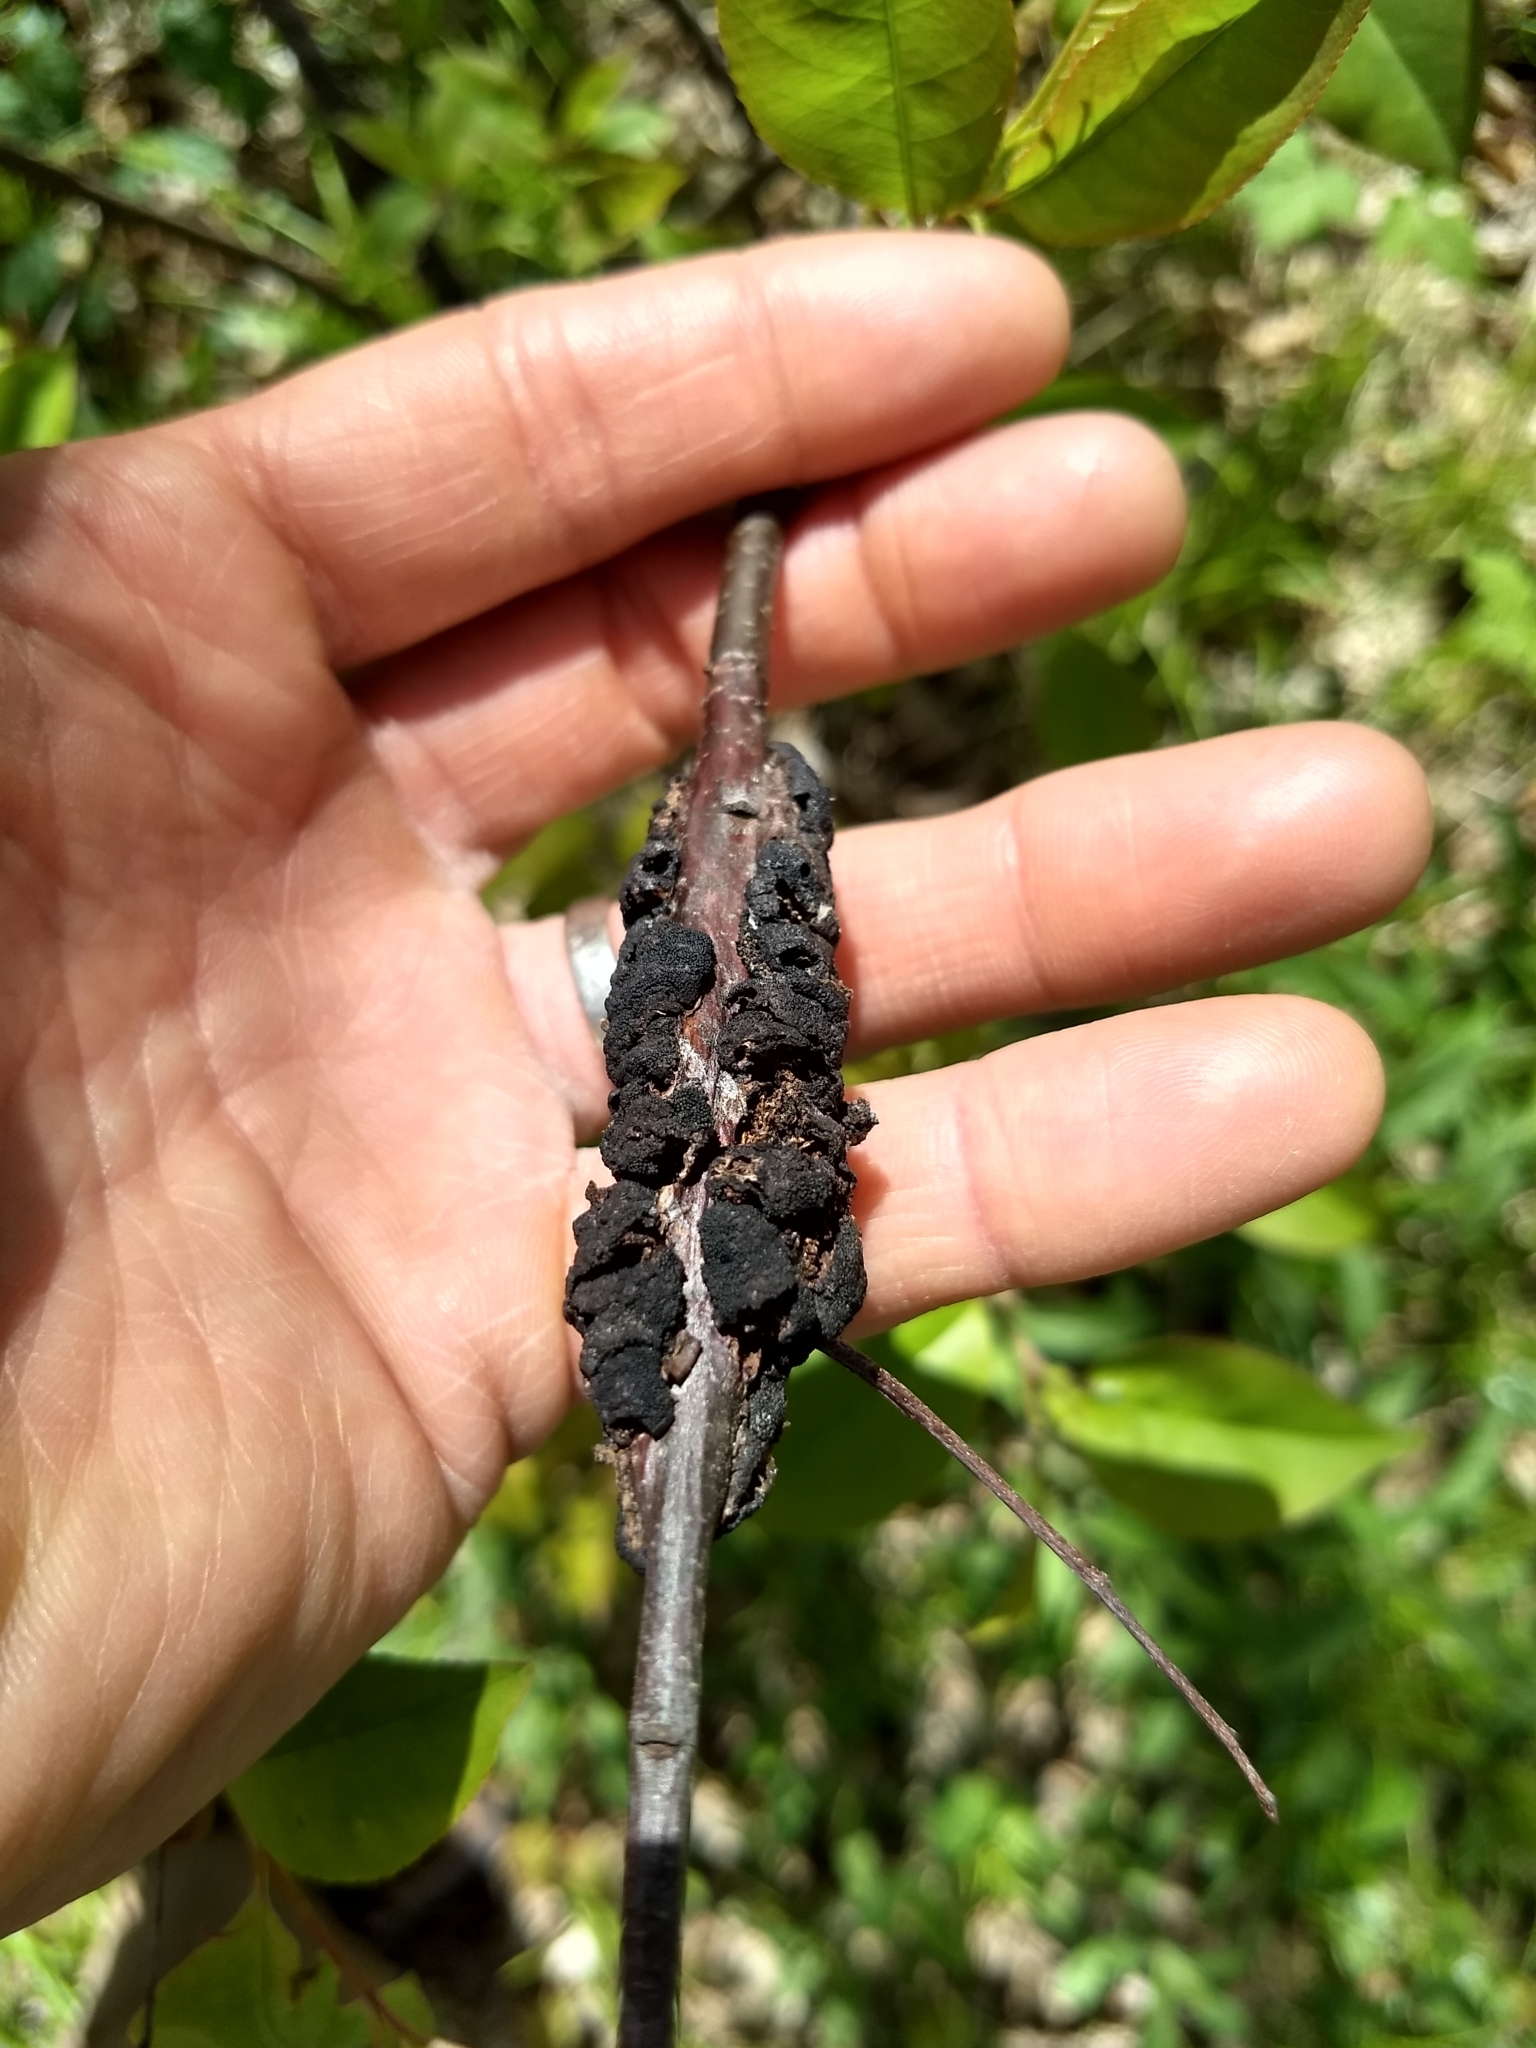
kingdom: Fungi
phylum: Ascomycota
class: Dothideomycetes
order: Venturiales
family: Venturiaceae
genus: Apiosporina
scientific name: Apiosporina morbosa
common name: Black knot
